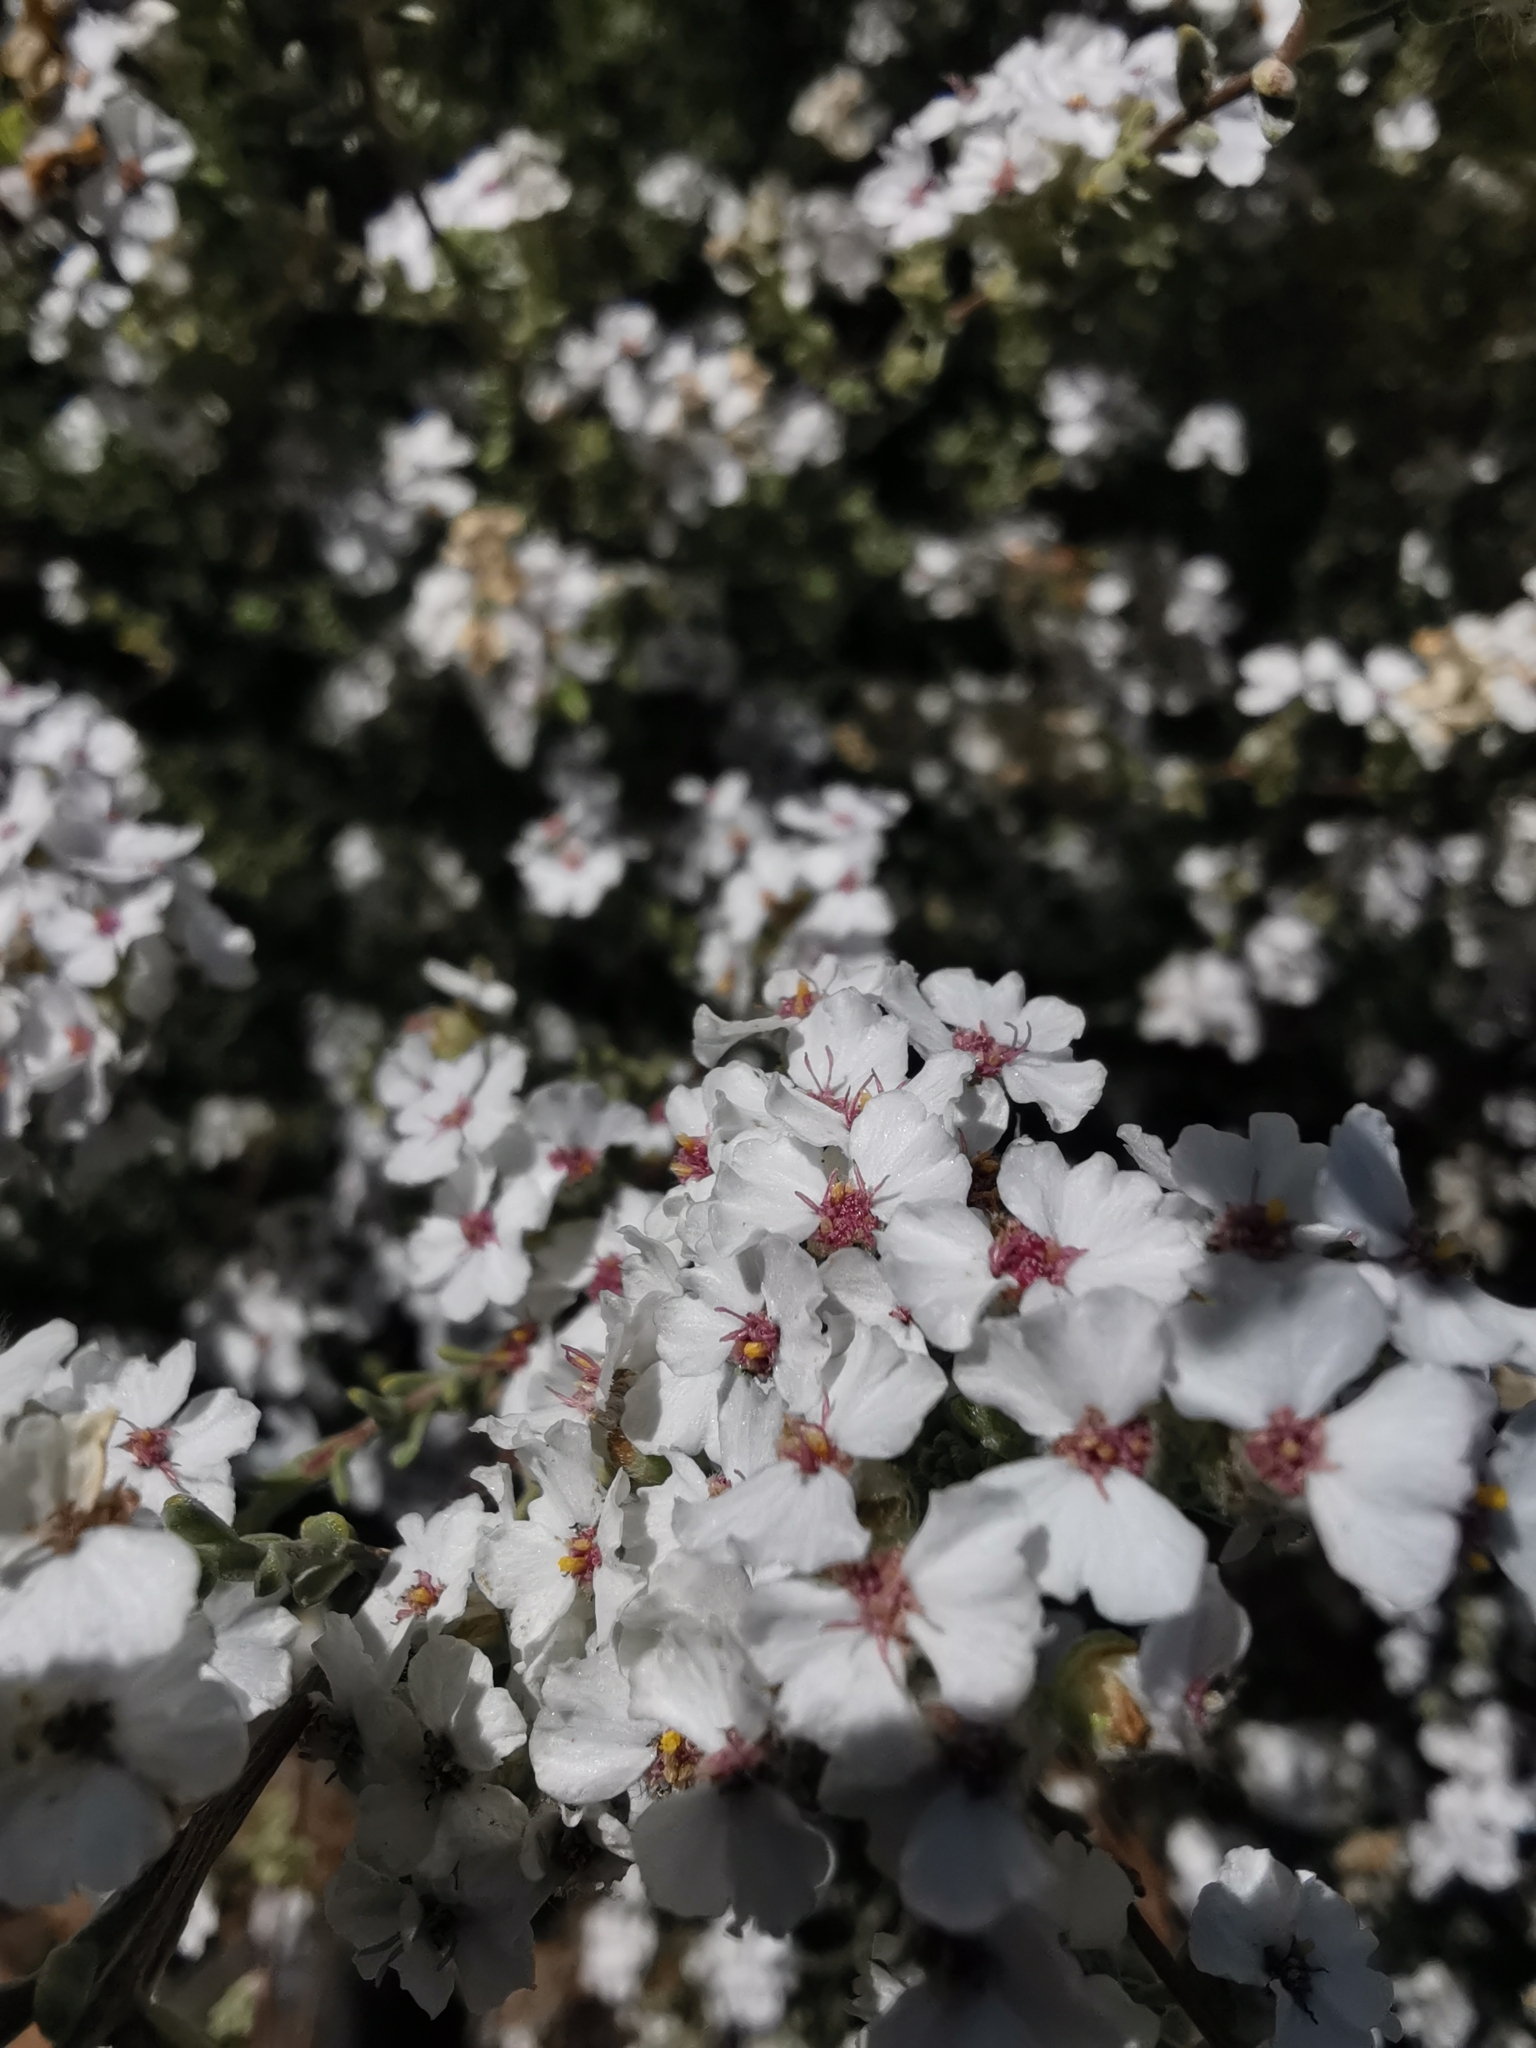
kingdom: Plantae
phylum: Tracheophyta
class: Magnoliopsida
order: Asterales
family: Asteraceae
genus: Eriocephalus
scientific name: Eriocephalus africanus
